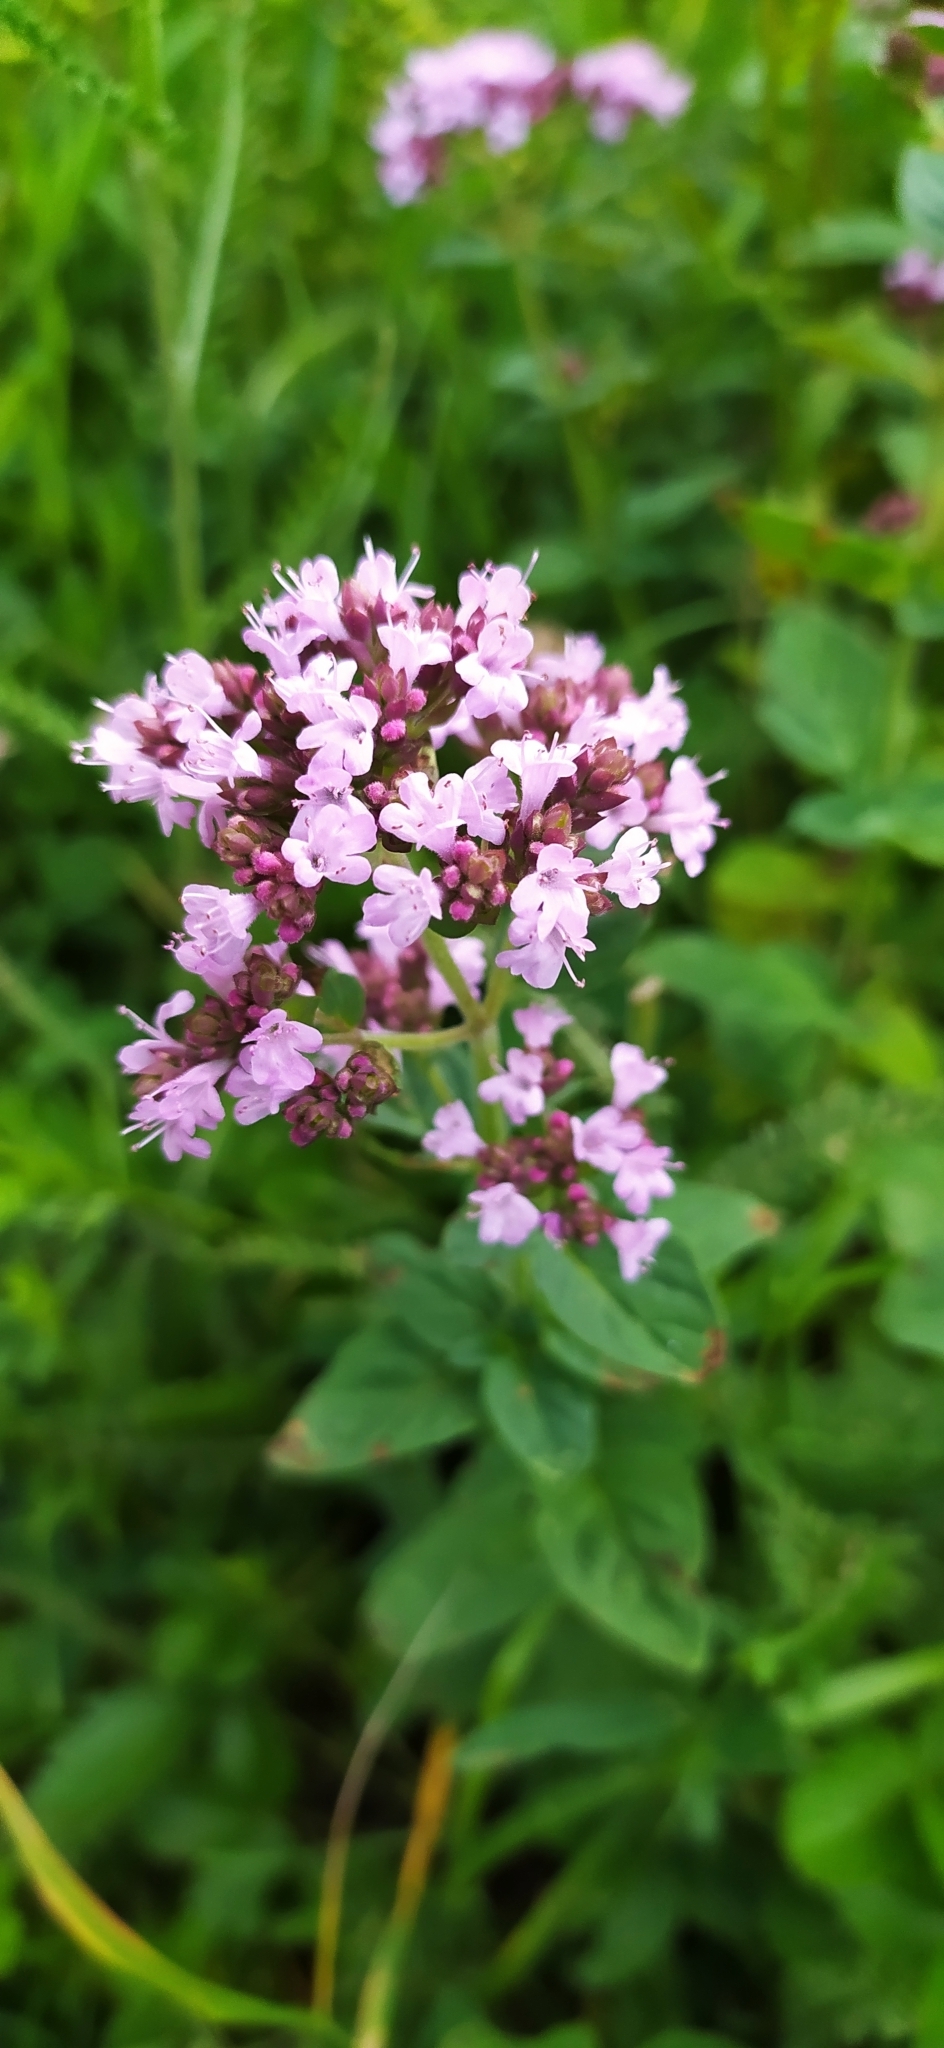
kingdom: Plantae
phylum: Tracheophyta
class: Magnoliopsida
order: Lamiales
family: Lamiaceae
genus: Origanum
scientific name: Origanum vulgare
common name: Wild marjoram
